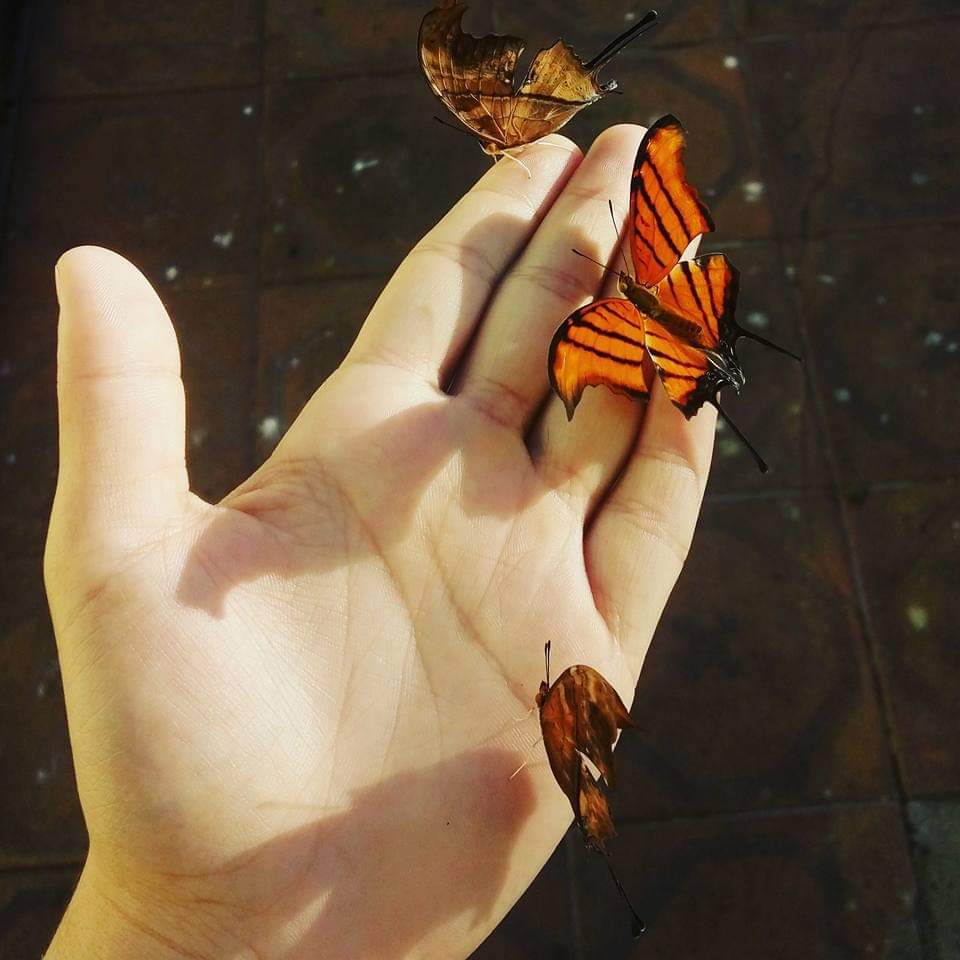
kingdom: Animalia
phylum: Arthropoda
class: Insecta
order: Lepidoptera
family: Nymphalidae
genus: Marpesia
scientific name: Marpesia petreus
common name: Red dagger wing
